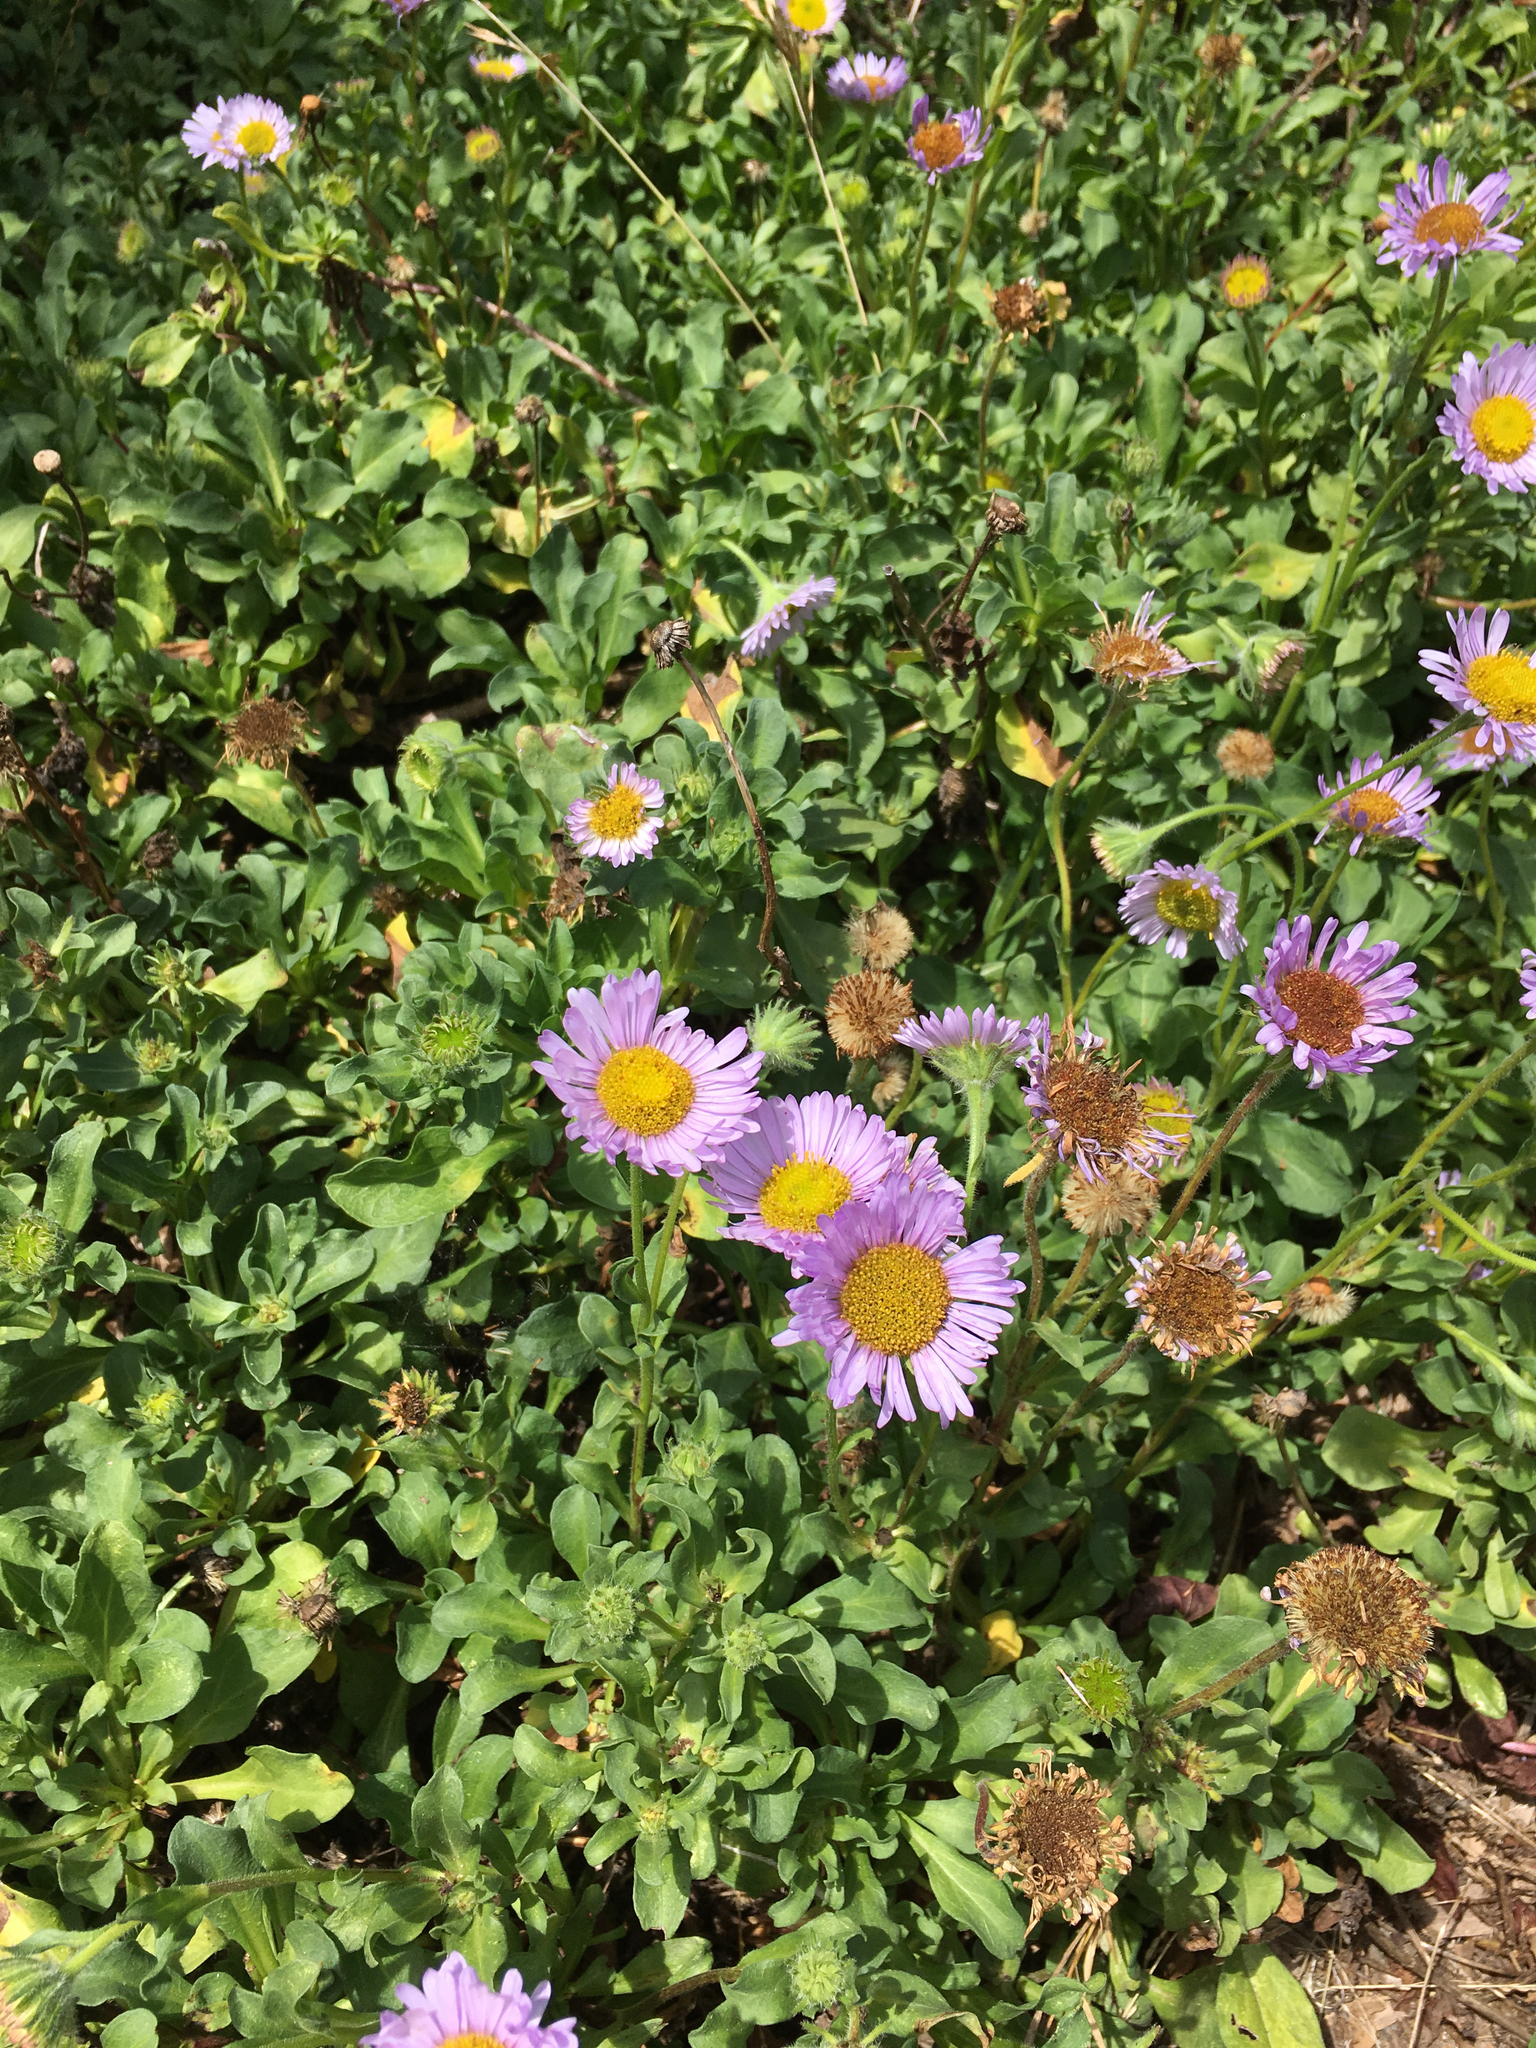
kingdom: Plantae
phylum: Tracheophyta
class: Magnoliopsida
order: Asterales
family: Asteraceae
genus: Erigeron
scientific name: Erigeron glaucus
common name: Seaside daisy
